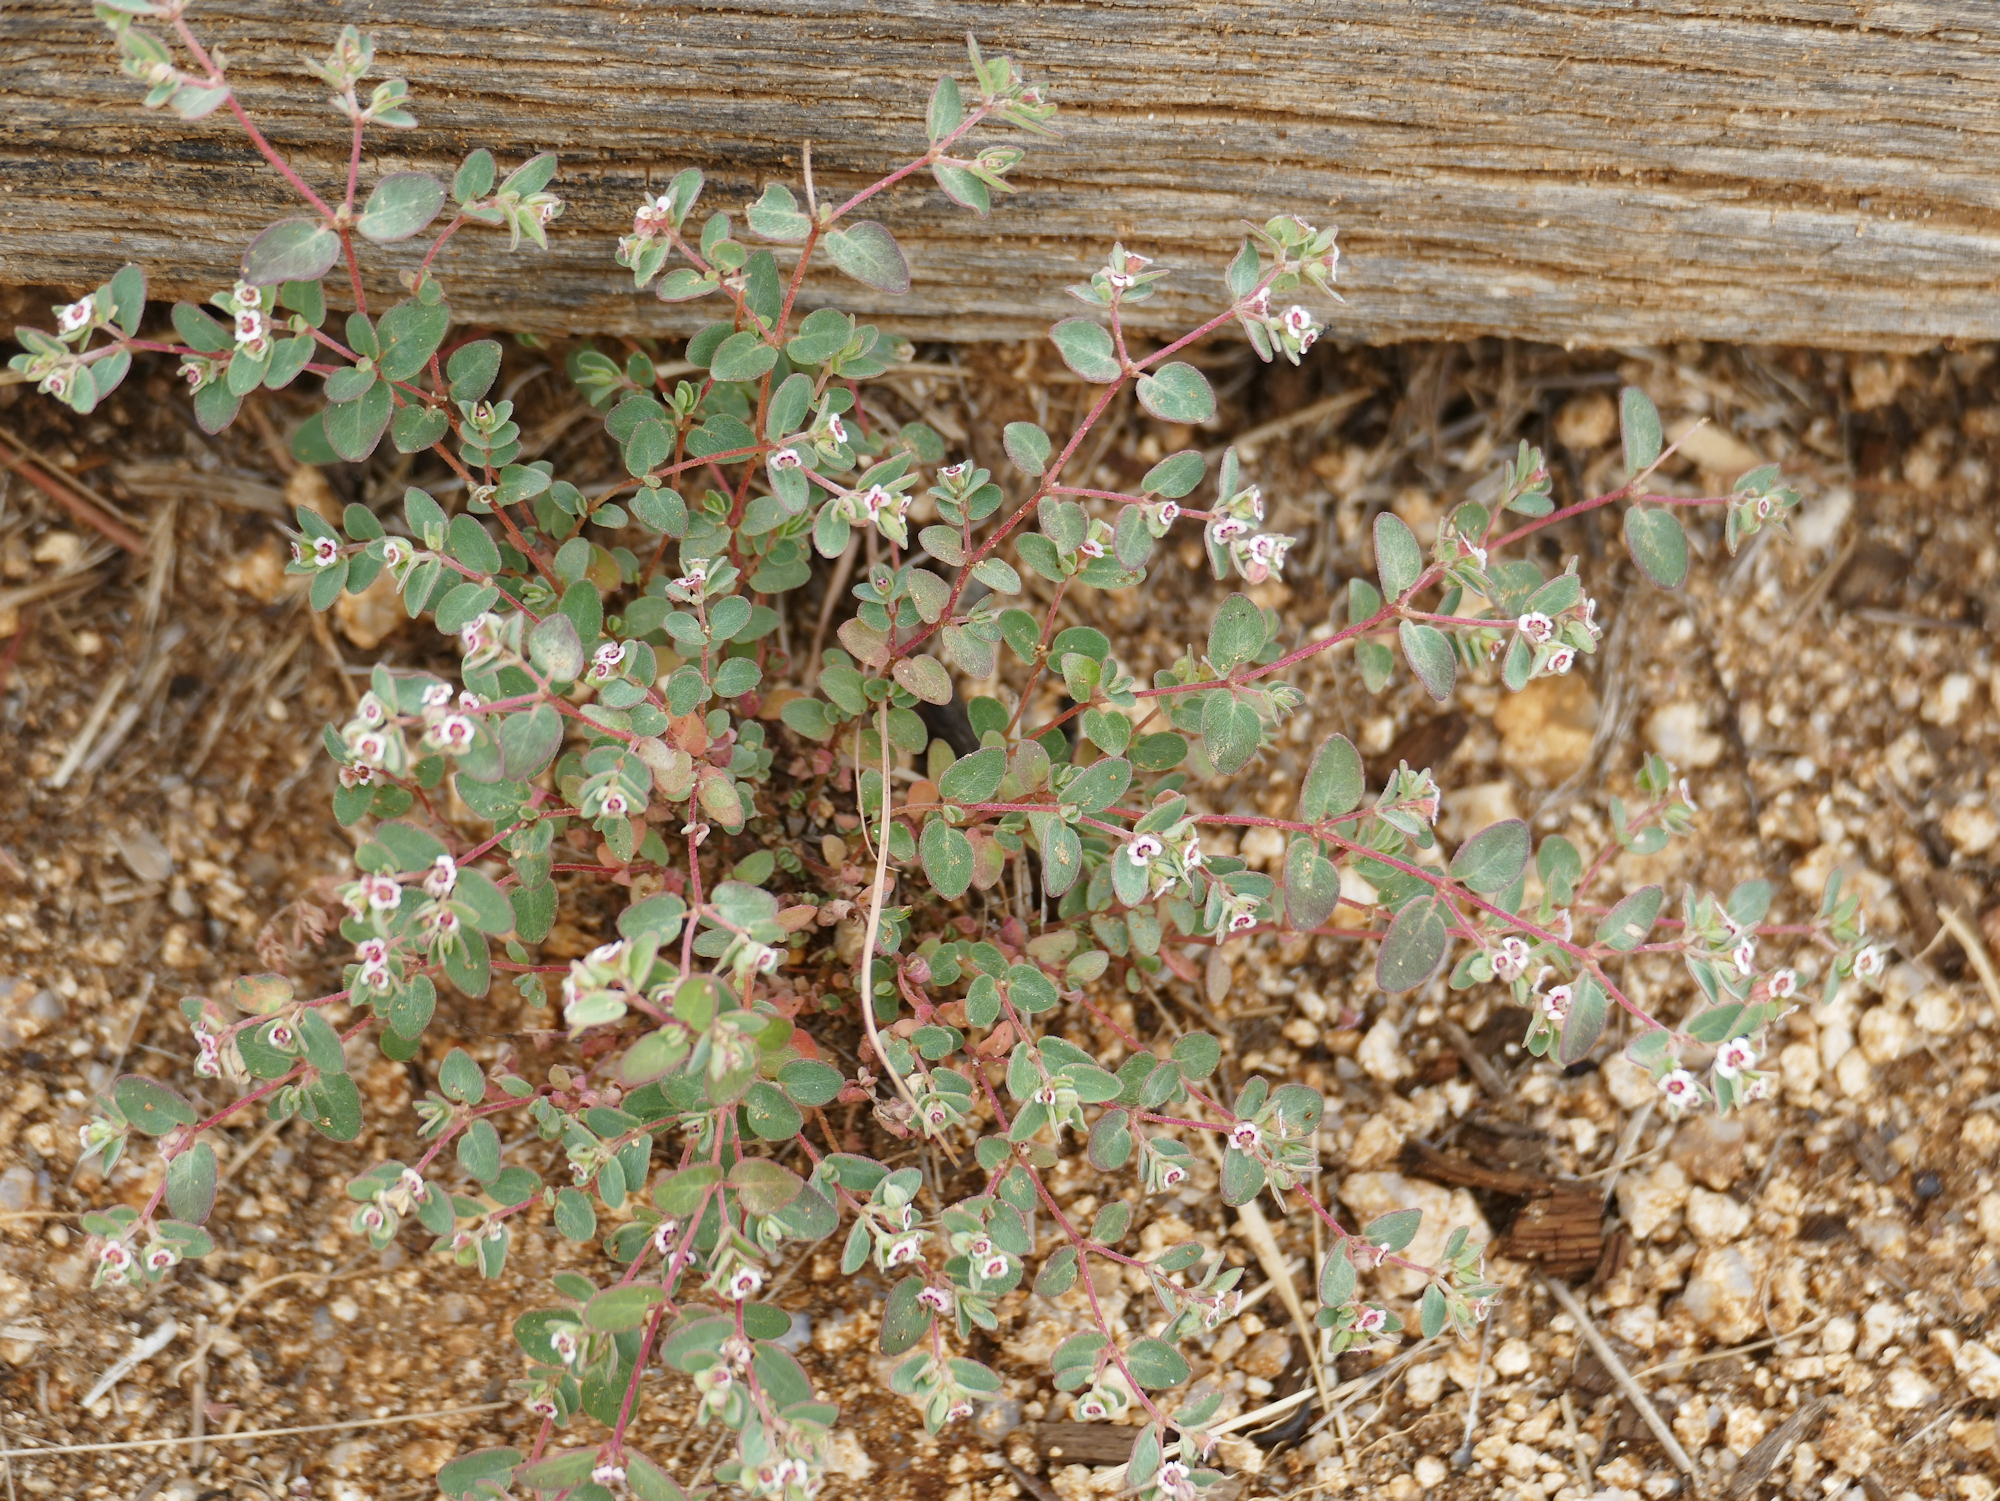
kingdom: Plantae
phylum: Tracheophyta
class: Magnoliopsida
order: Malpighiales
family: Euphorbiaceae
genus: Euphorbia
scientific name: Euphorbia melanadenia
